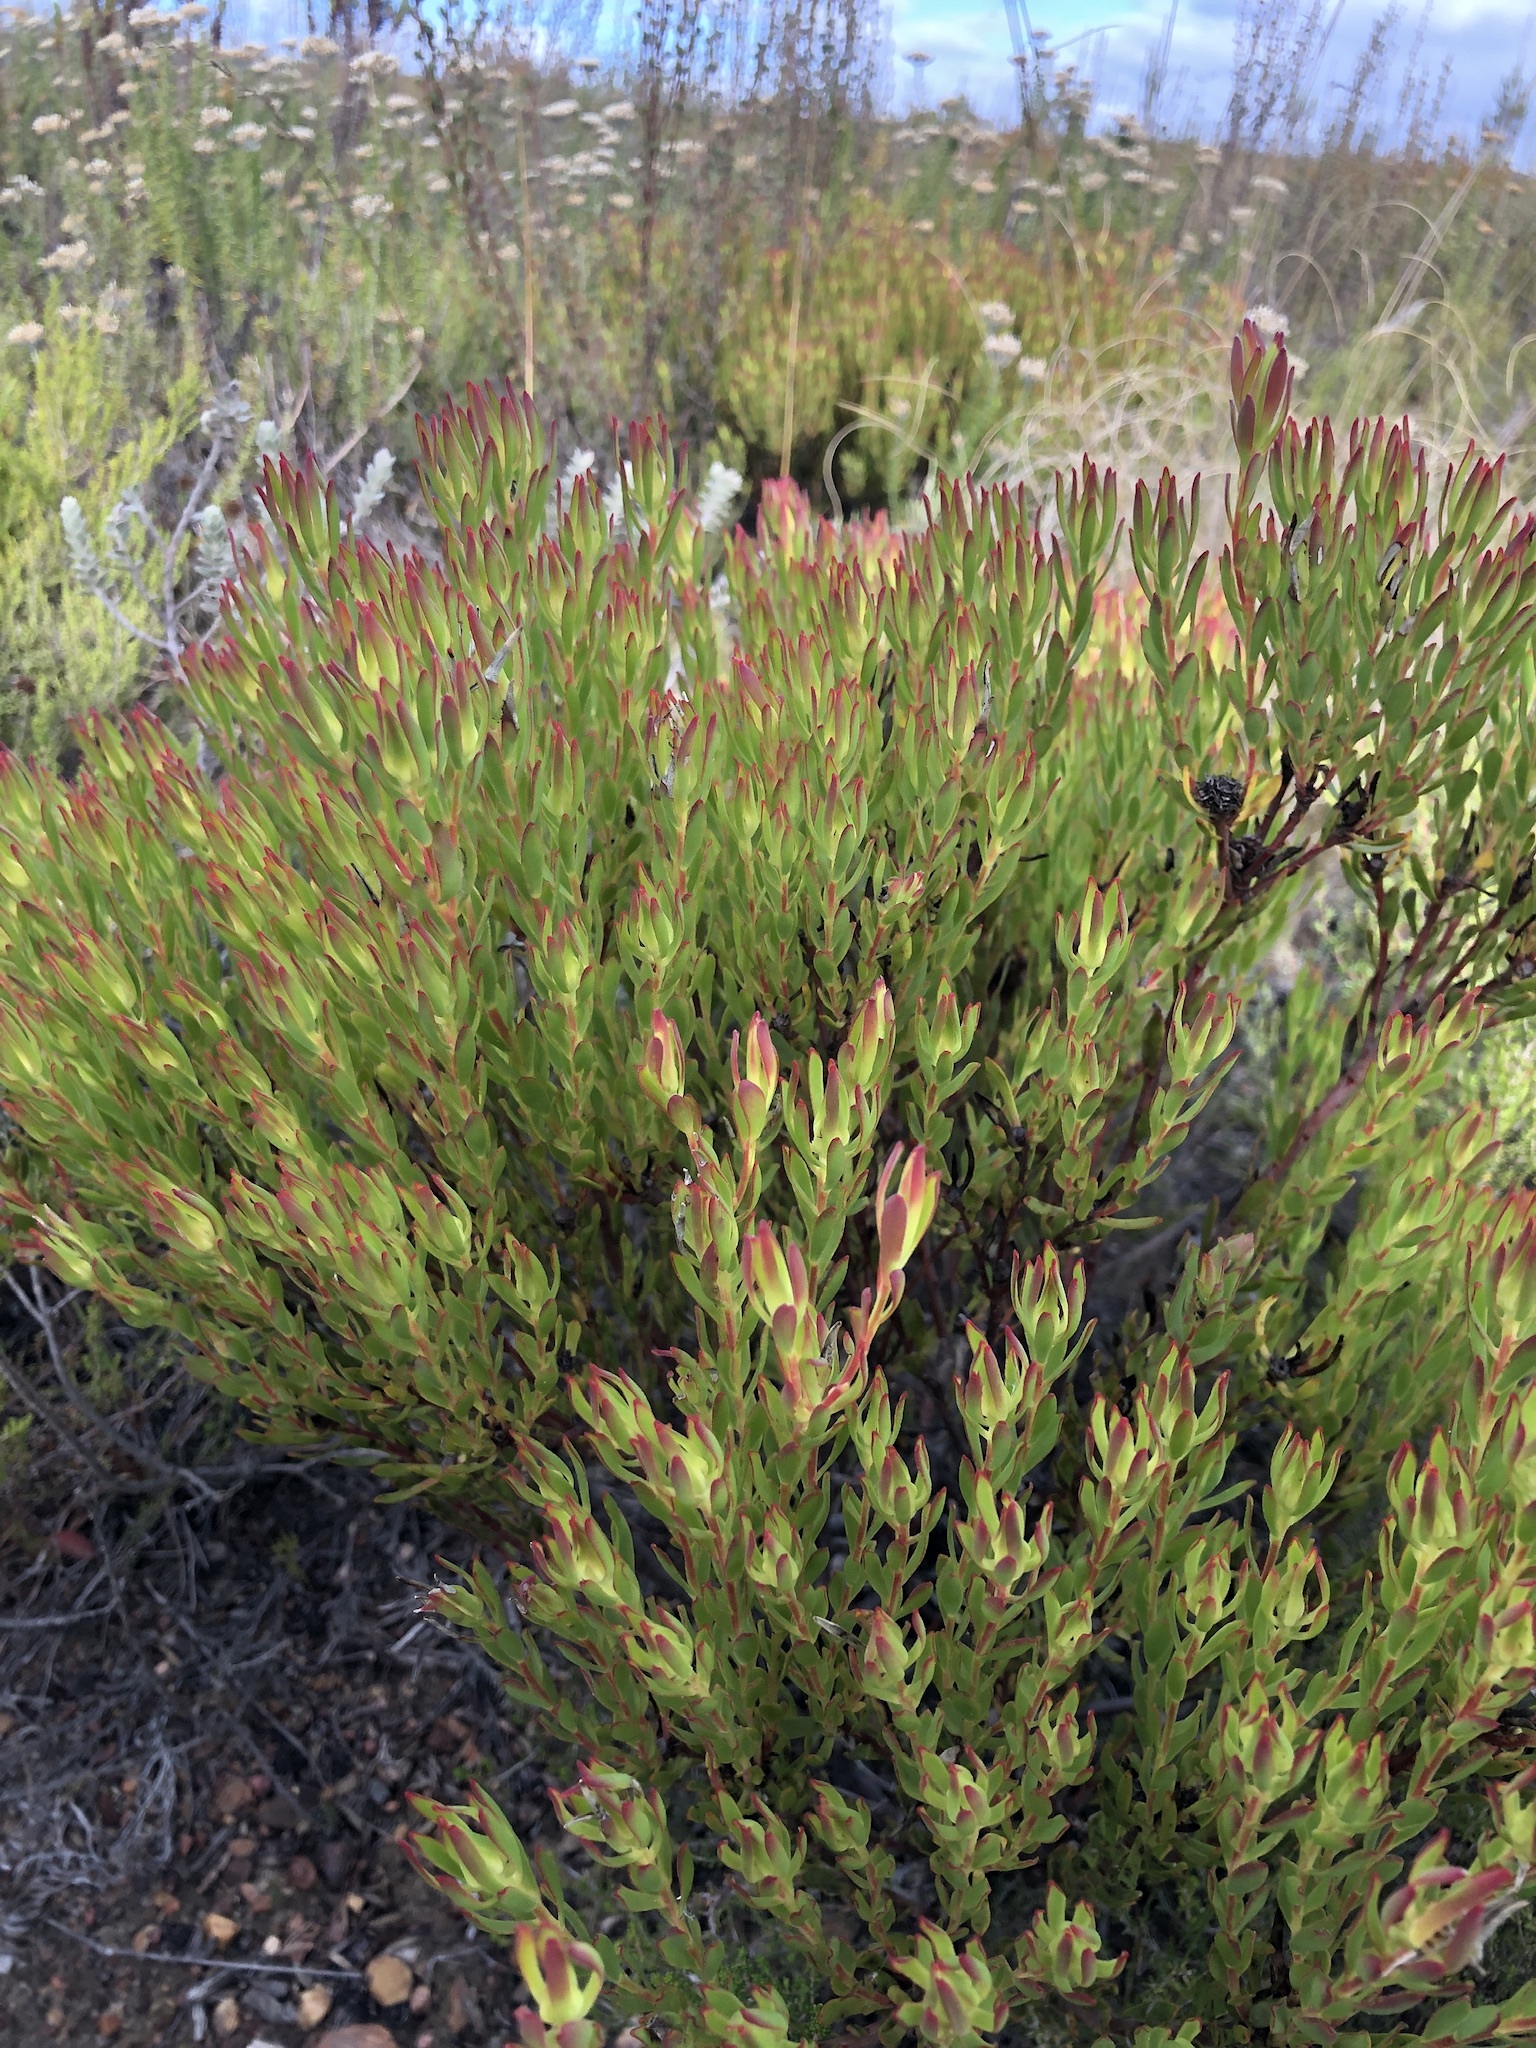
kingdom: Plantae
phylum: Tracheophyta
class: Magnoliopsida
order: Proteales
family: Proteaceae
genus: Leucadendron
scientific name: Leucadendron modestum
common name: Rough-leaf conebush
